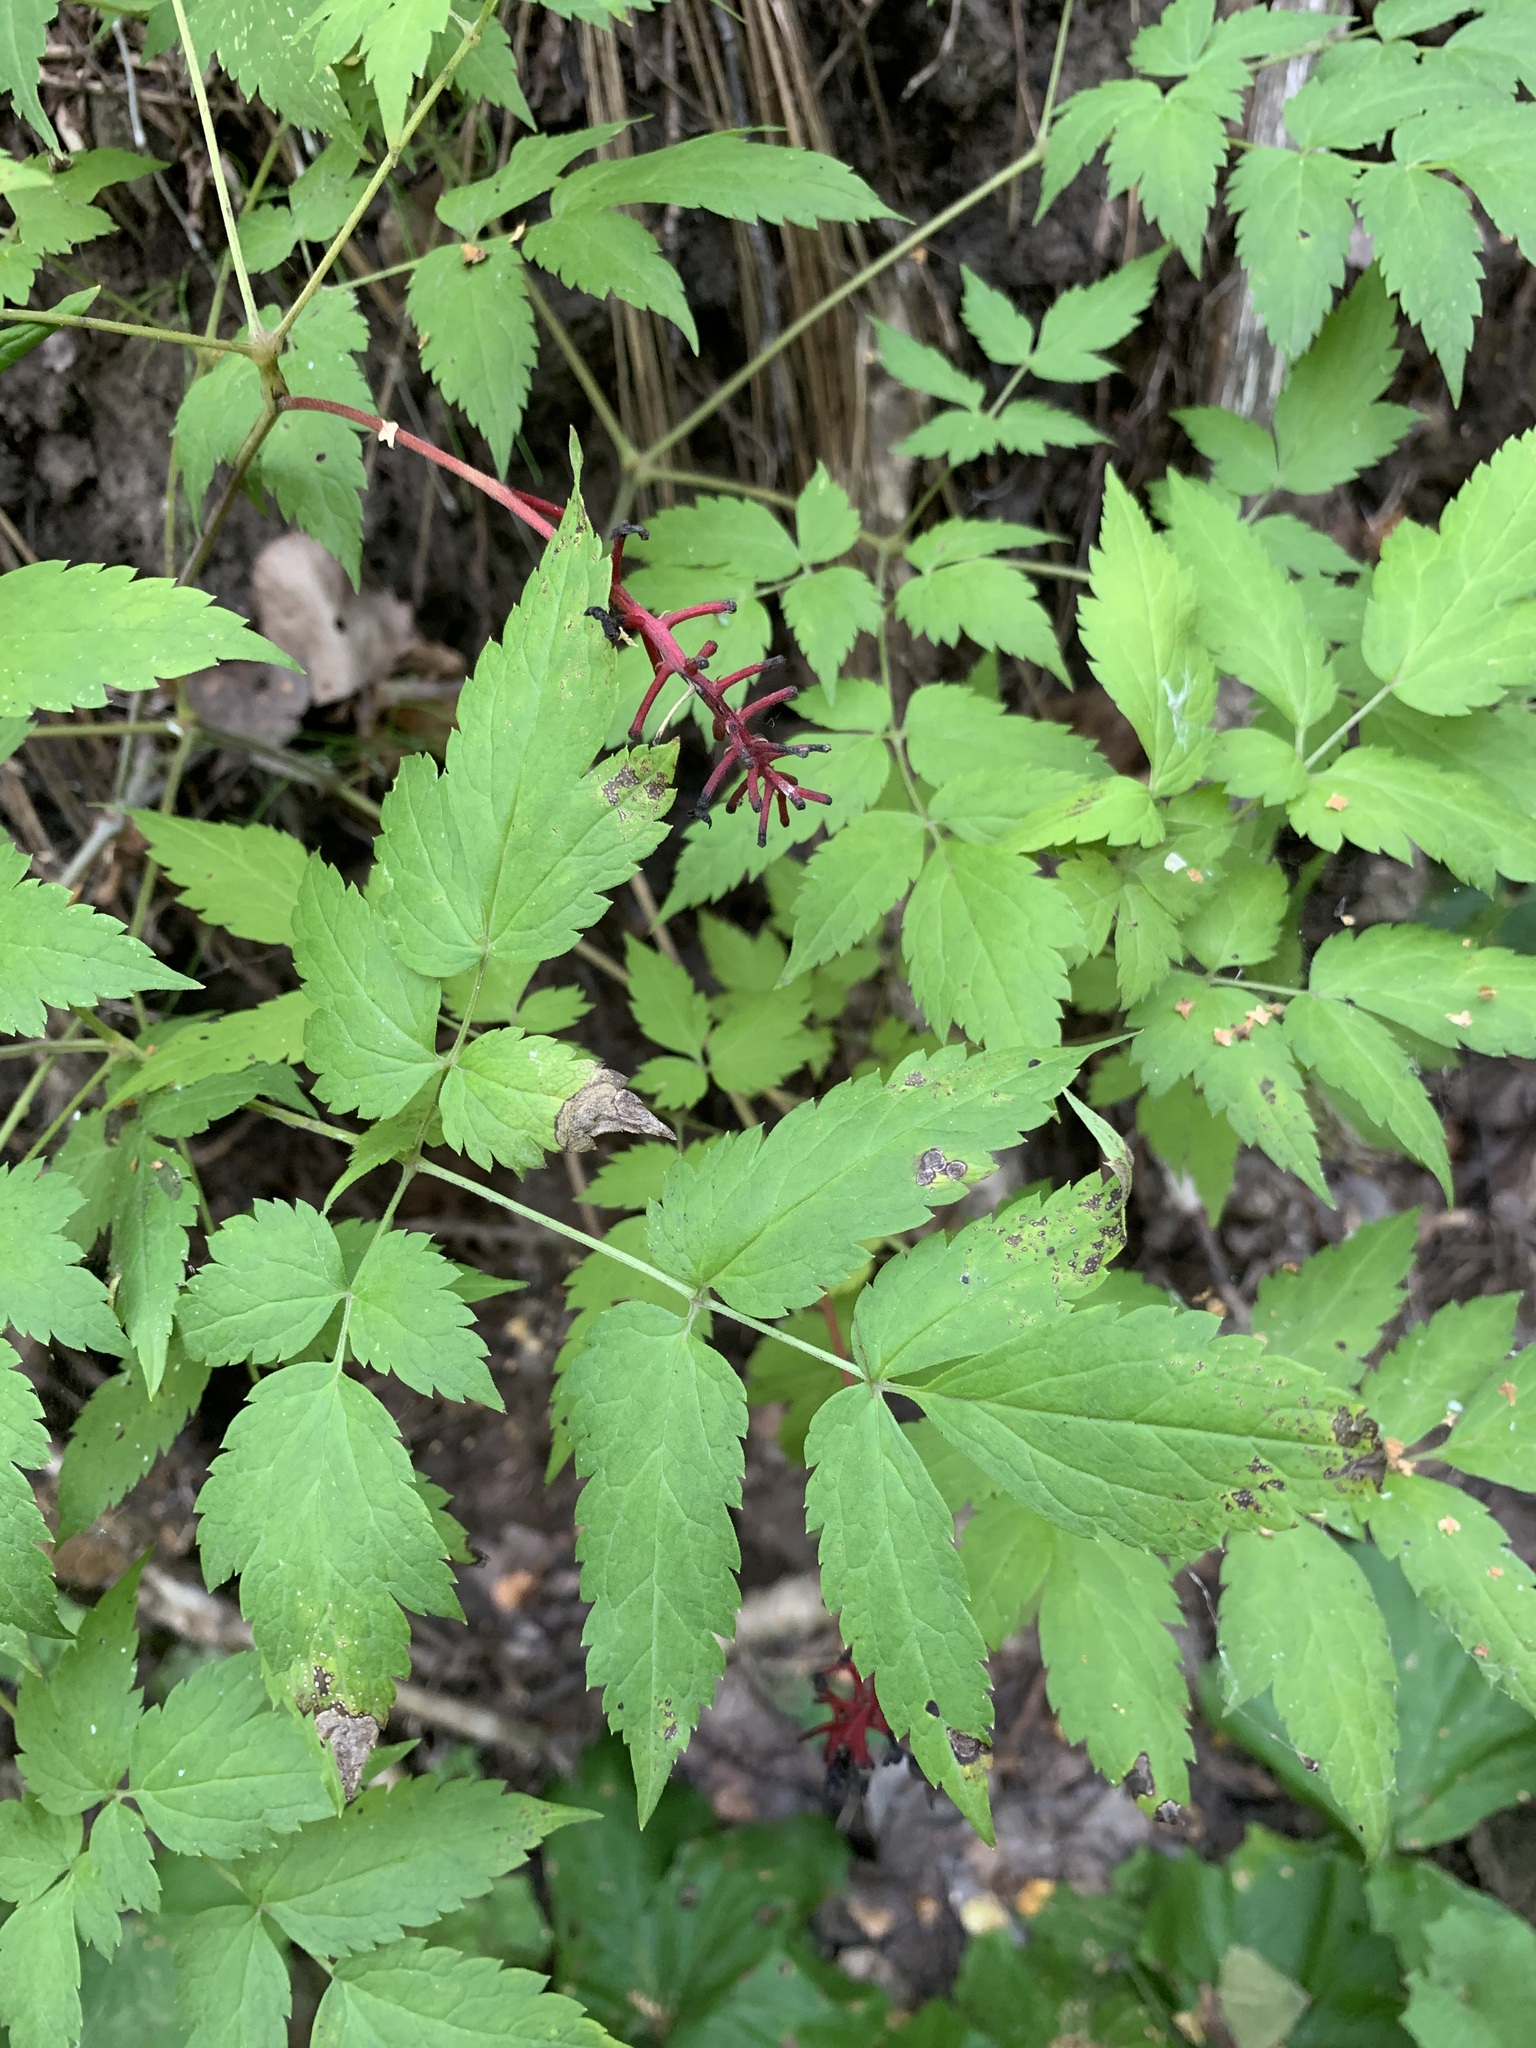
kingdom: Plantae
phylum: Tracheophyta
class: Magnoliopsida
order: Ranunculales
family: Ranunculaceae
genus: Actaea
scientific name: Actaea erythrocarpa
